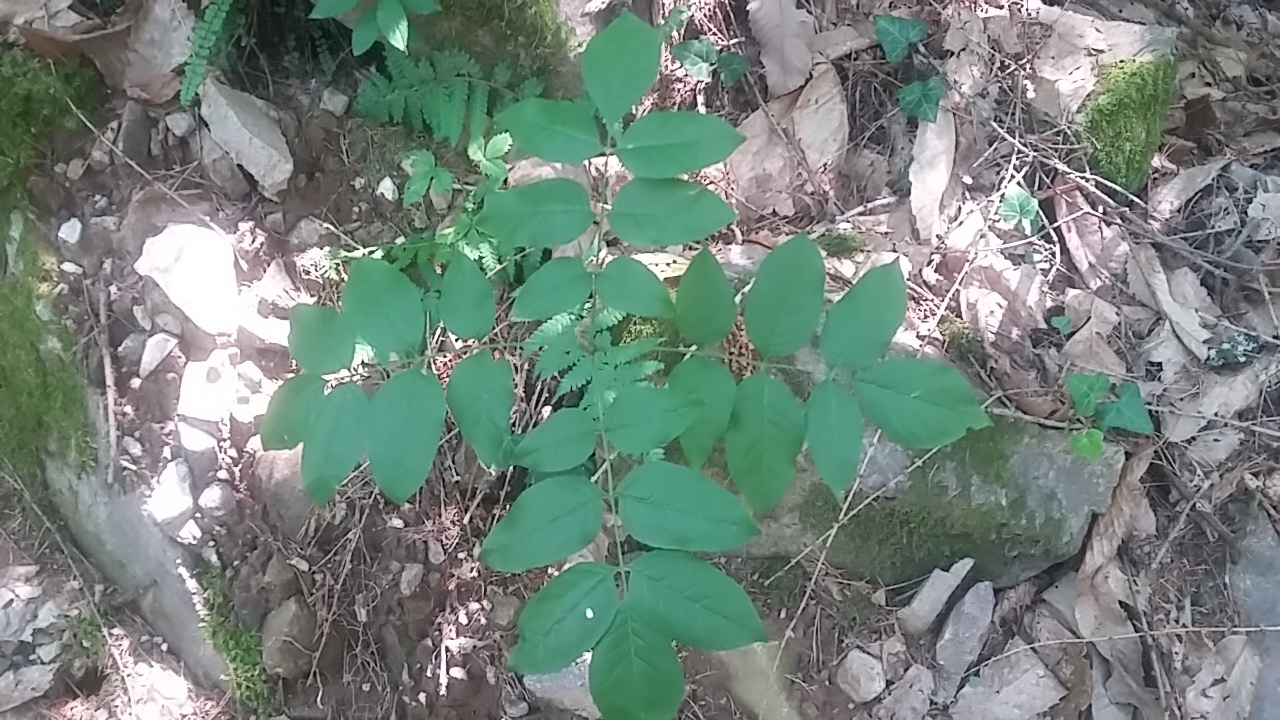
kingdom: Plantae
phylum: Tracheophyta
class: Magnoliopsida
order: Lamiales
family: Oleaceae
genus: Fraxinus
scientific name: Fraxinus ornus
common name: Manna ash
